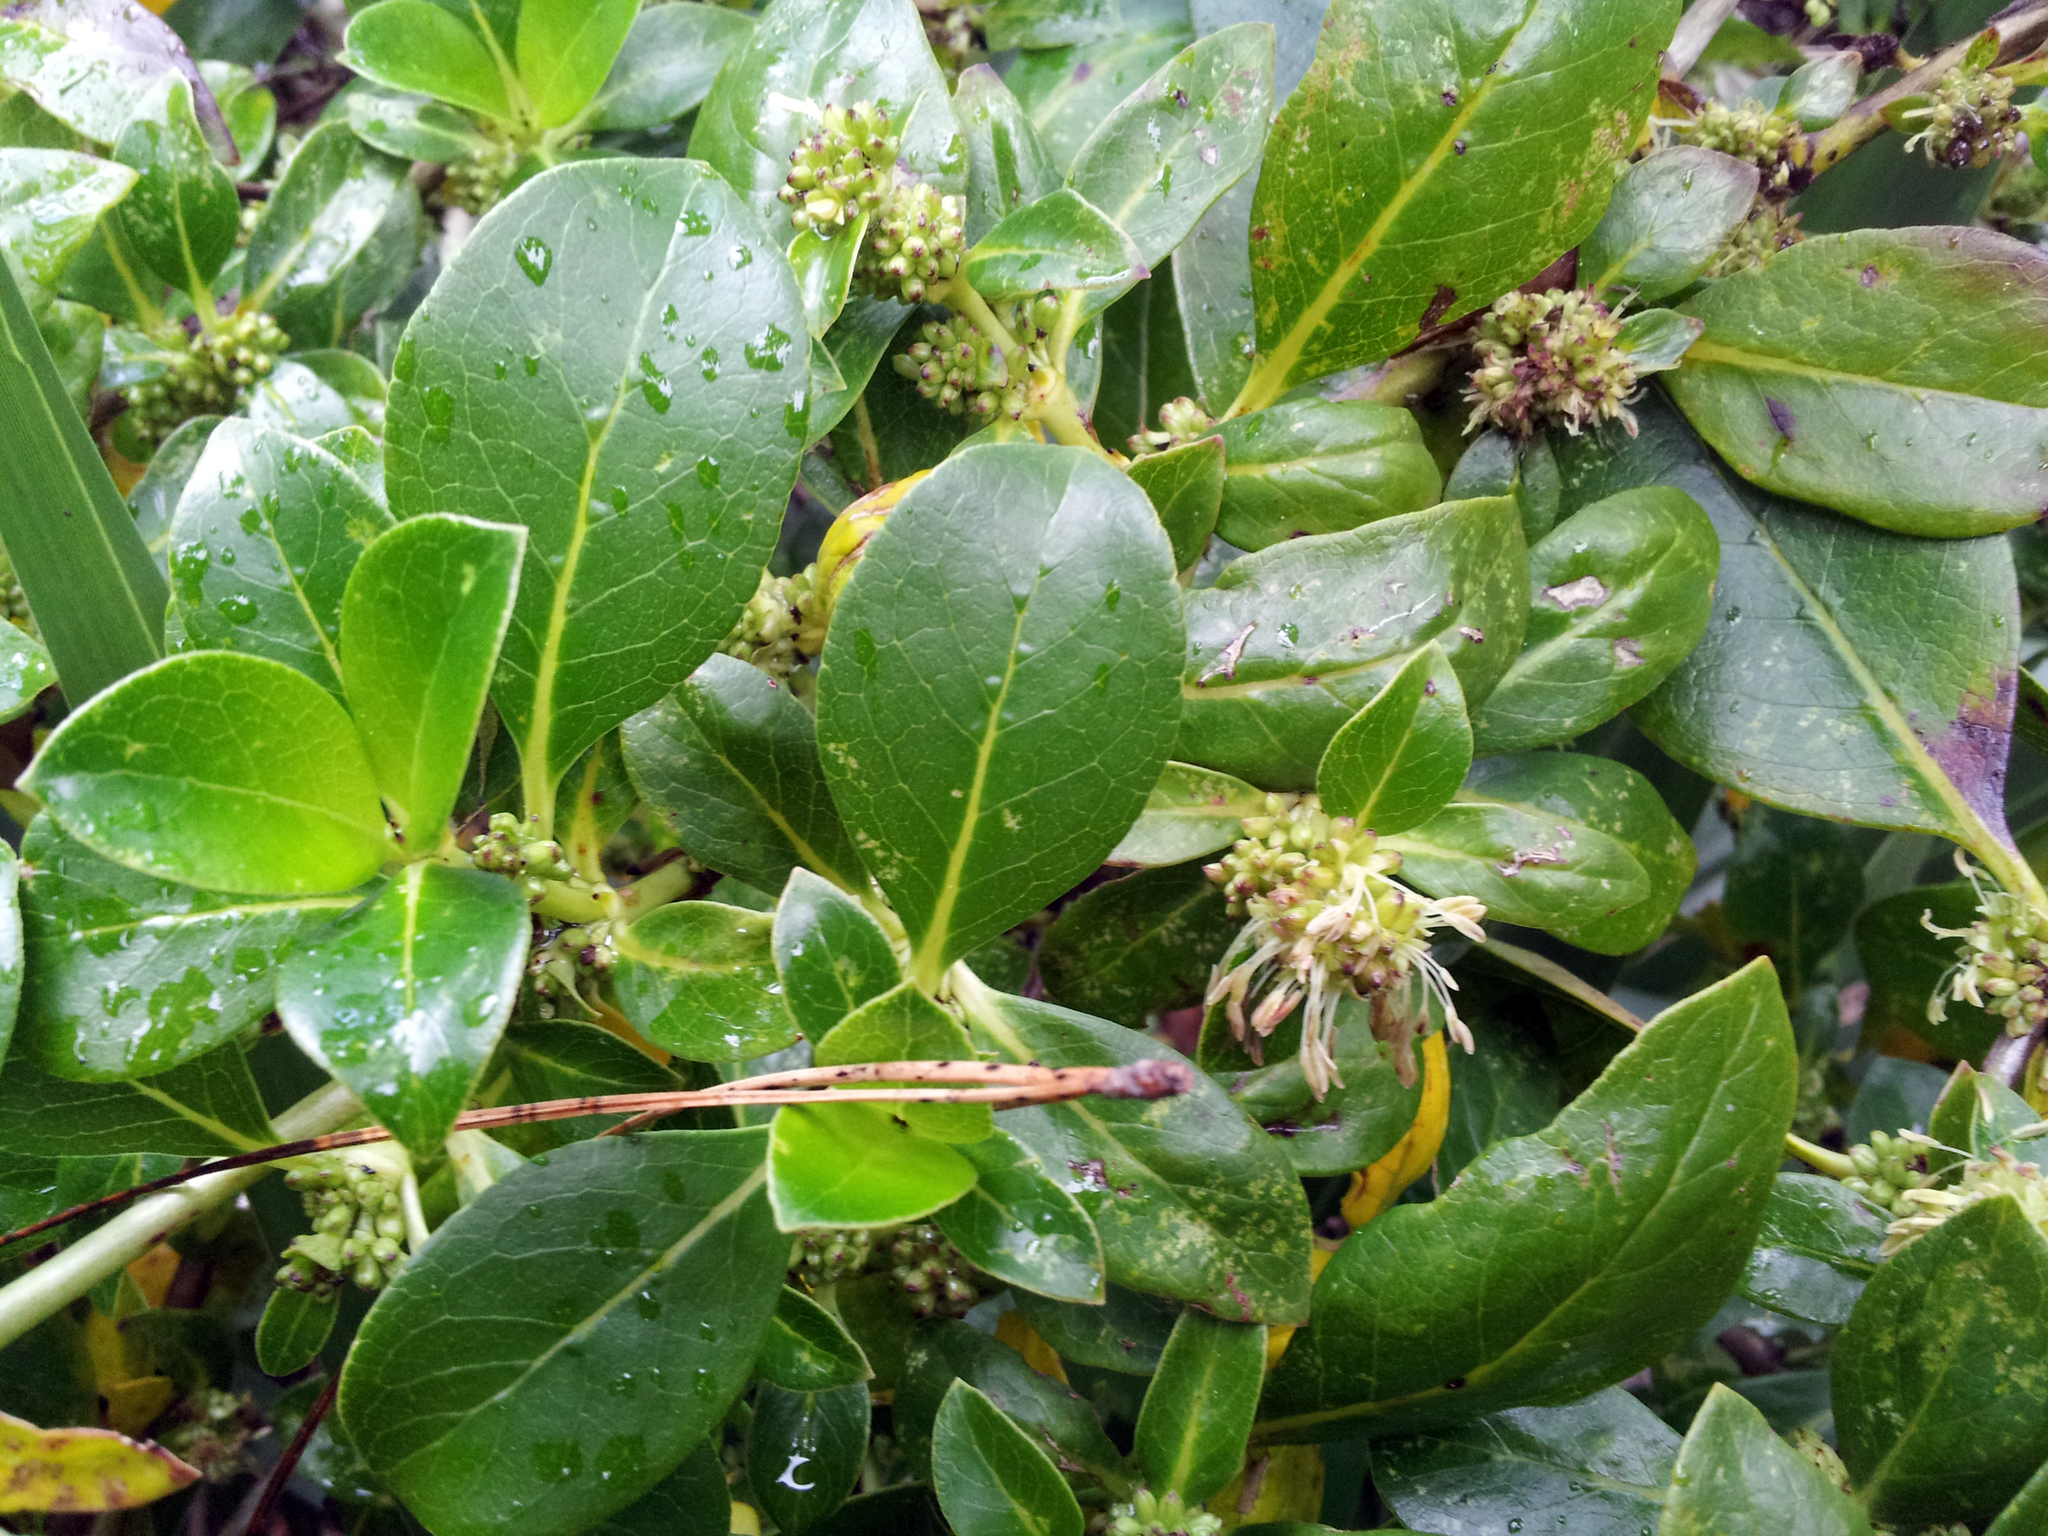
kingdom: Plantae
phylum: Tracheophyta
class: Magnoliopsida
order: Gentianales
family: Rubiaceae
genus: Coprosma
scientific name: Coprosma robusta
